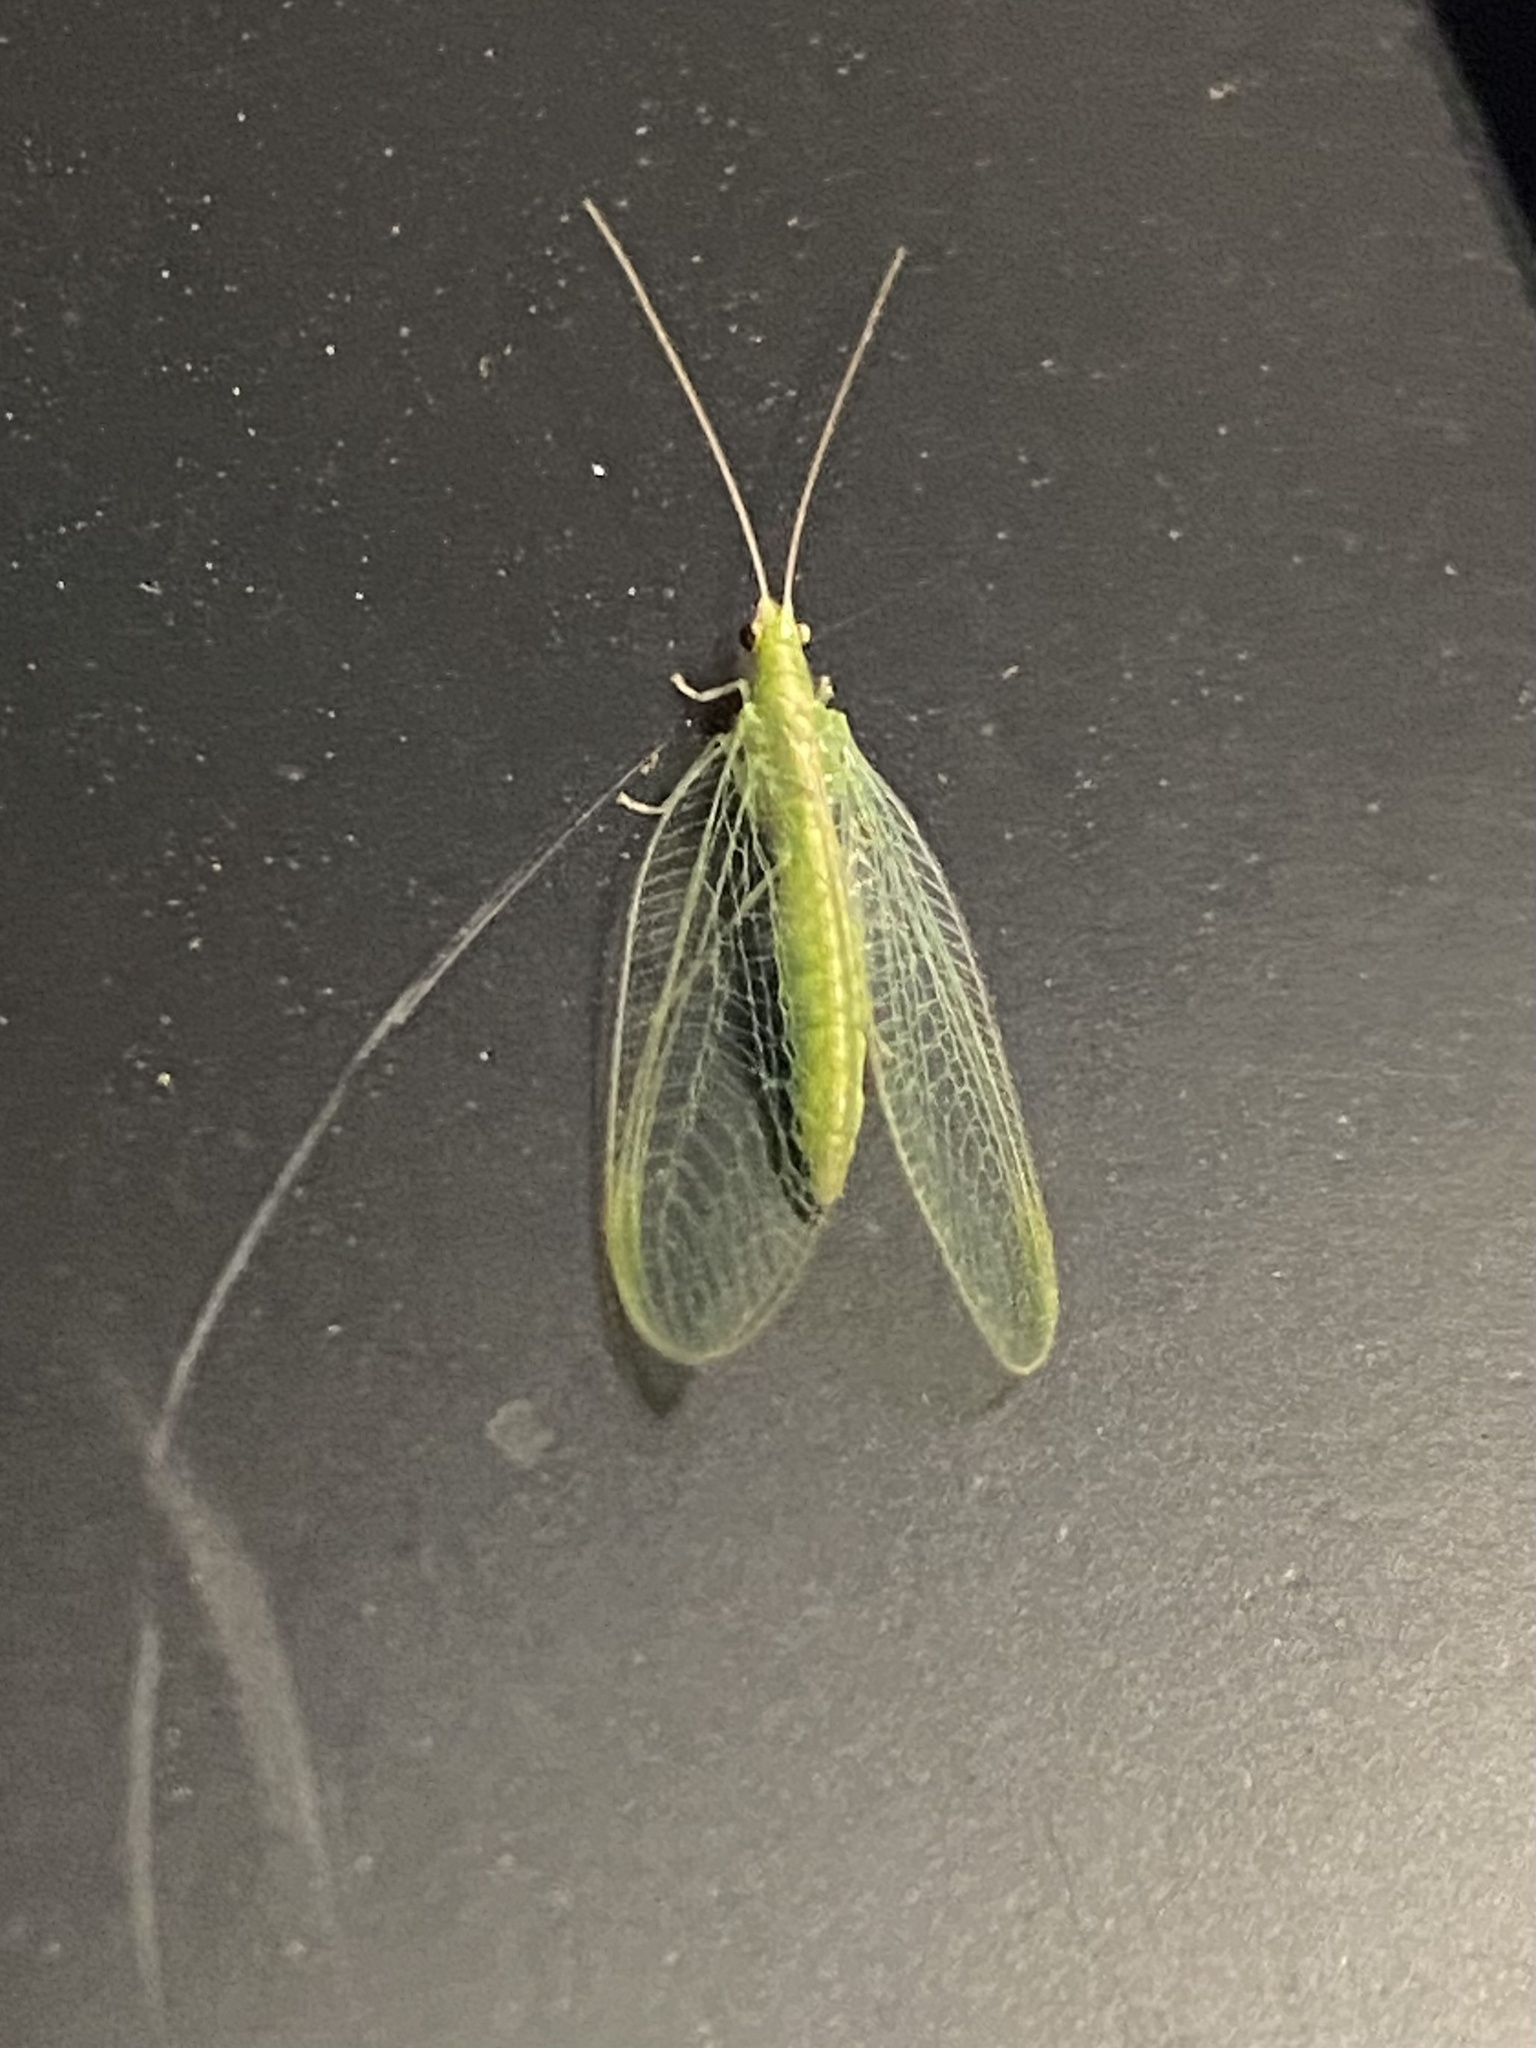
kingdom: Animalia
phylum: Arthropoda
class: Insecta
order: Neuroptera
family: Chrysopidae
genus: Chrysoperla
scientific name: Chrysoperla rufilabris
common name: Red-lipped green lacewing
